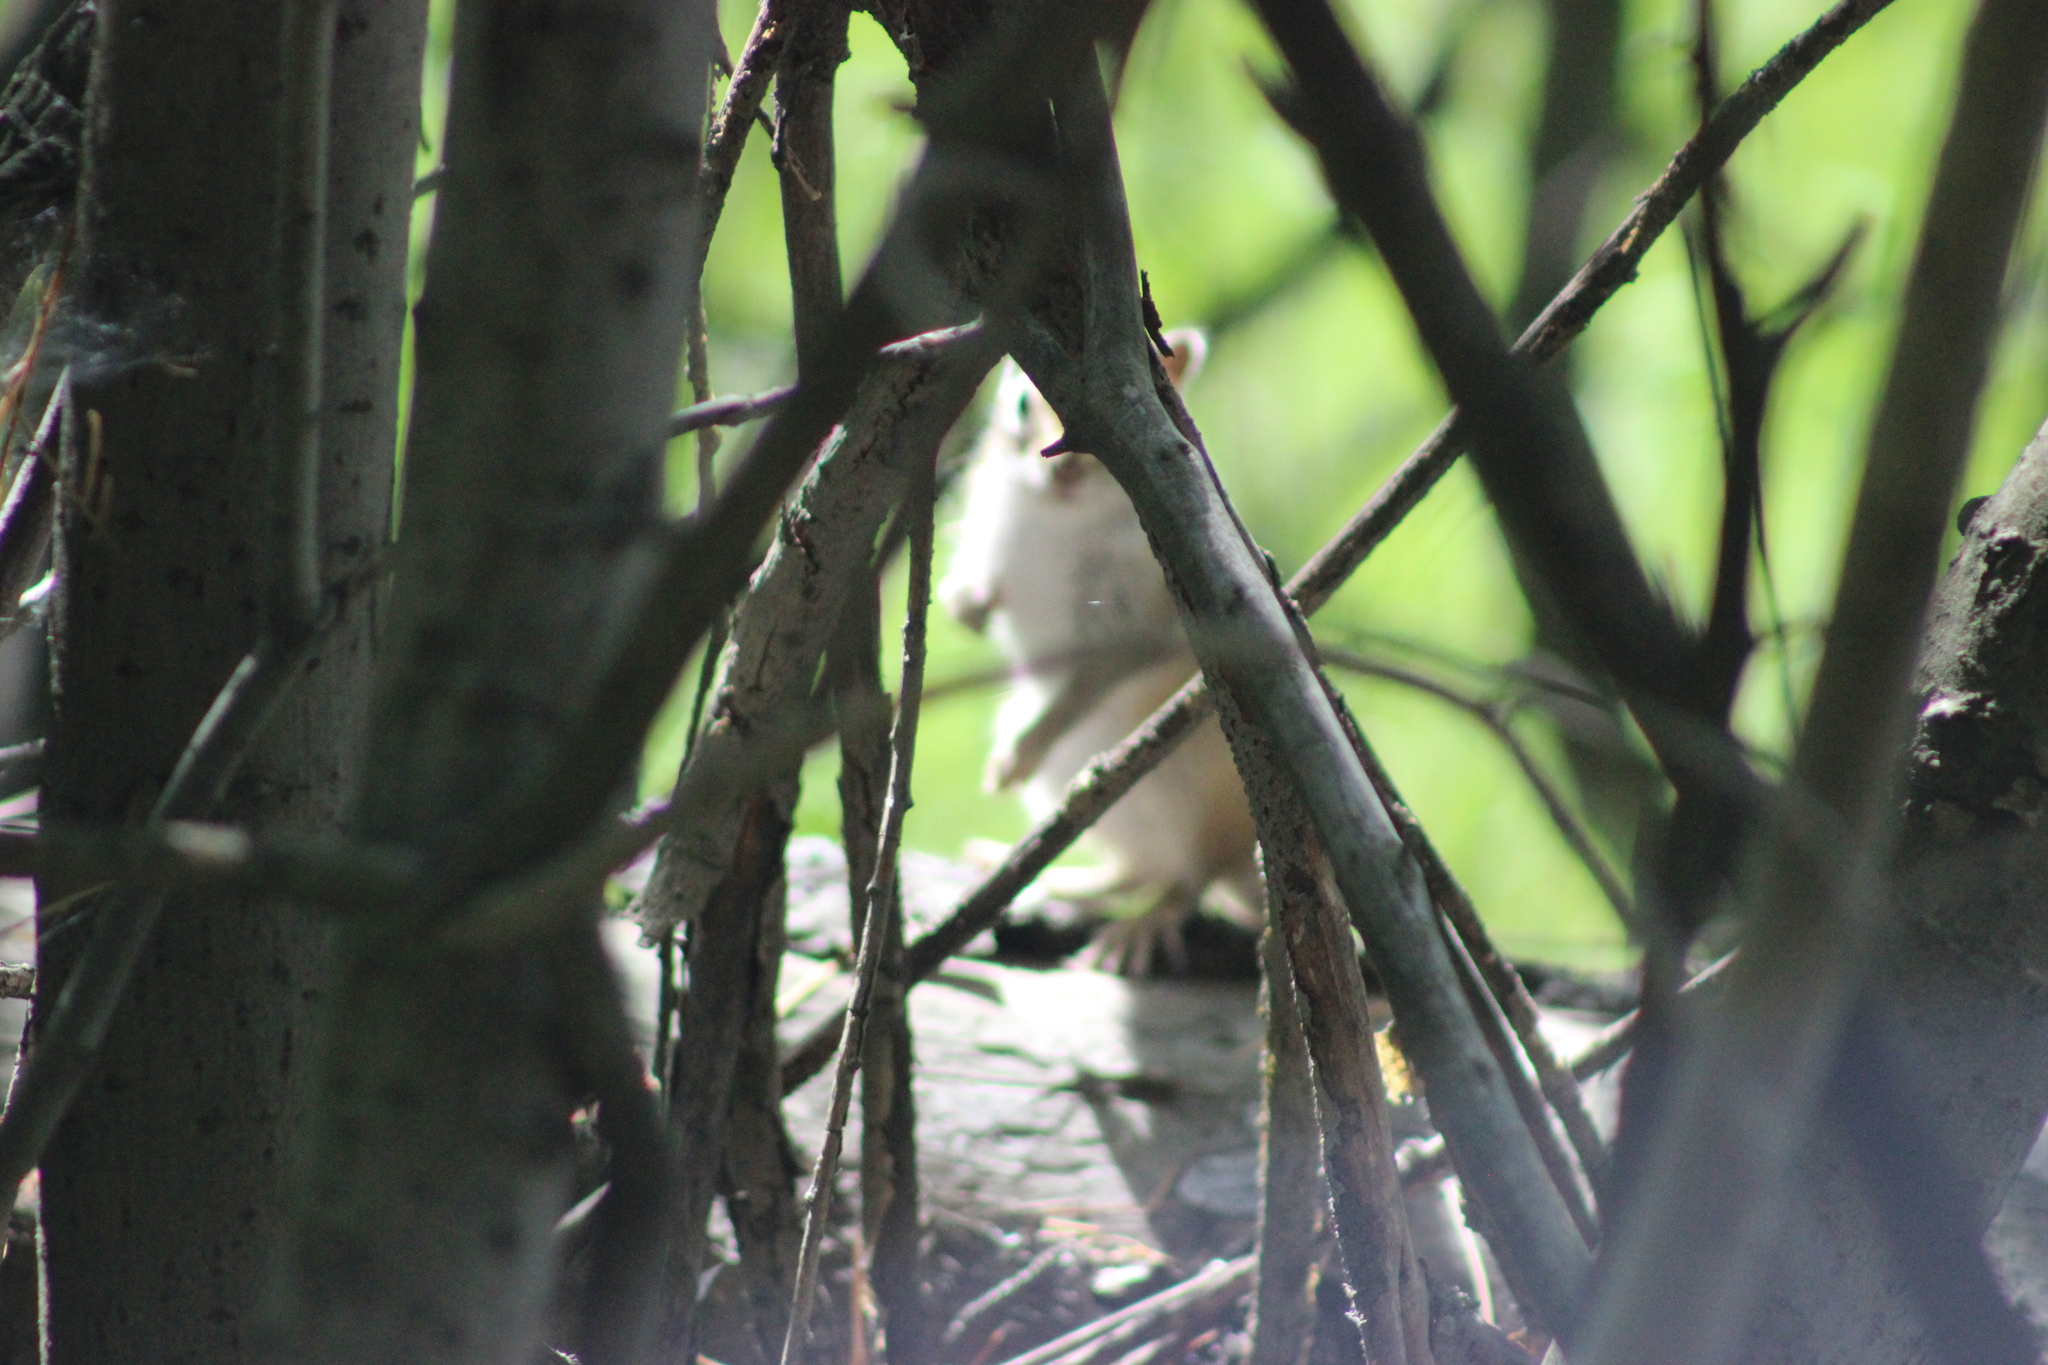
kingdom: Animalia
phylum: Chordata
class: Mammalia
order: Rodentia
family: Sciuridae
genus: Tamias
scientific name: Tamias sibiricus
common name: Siberian chipmunk
